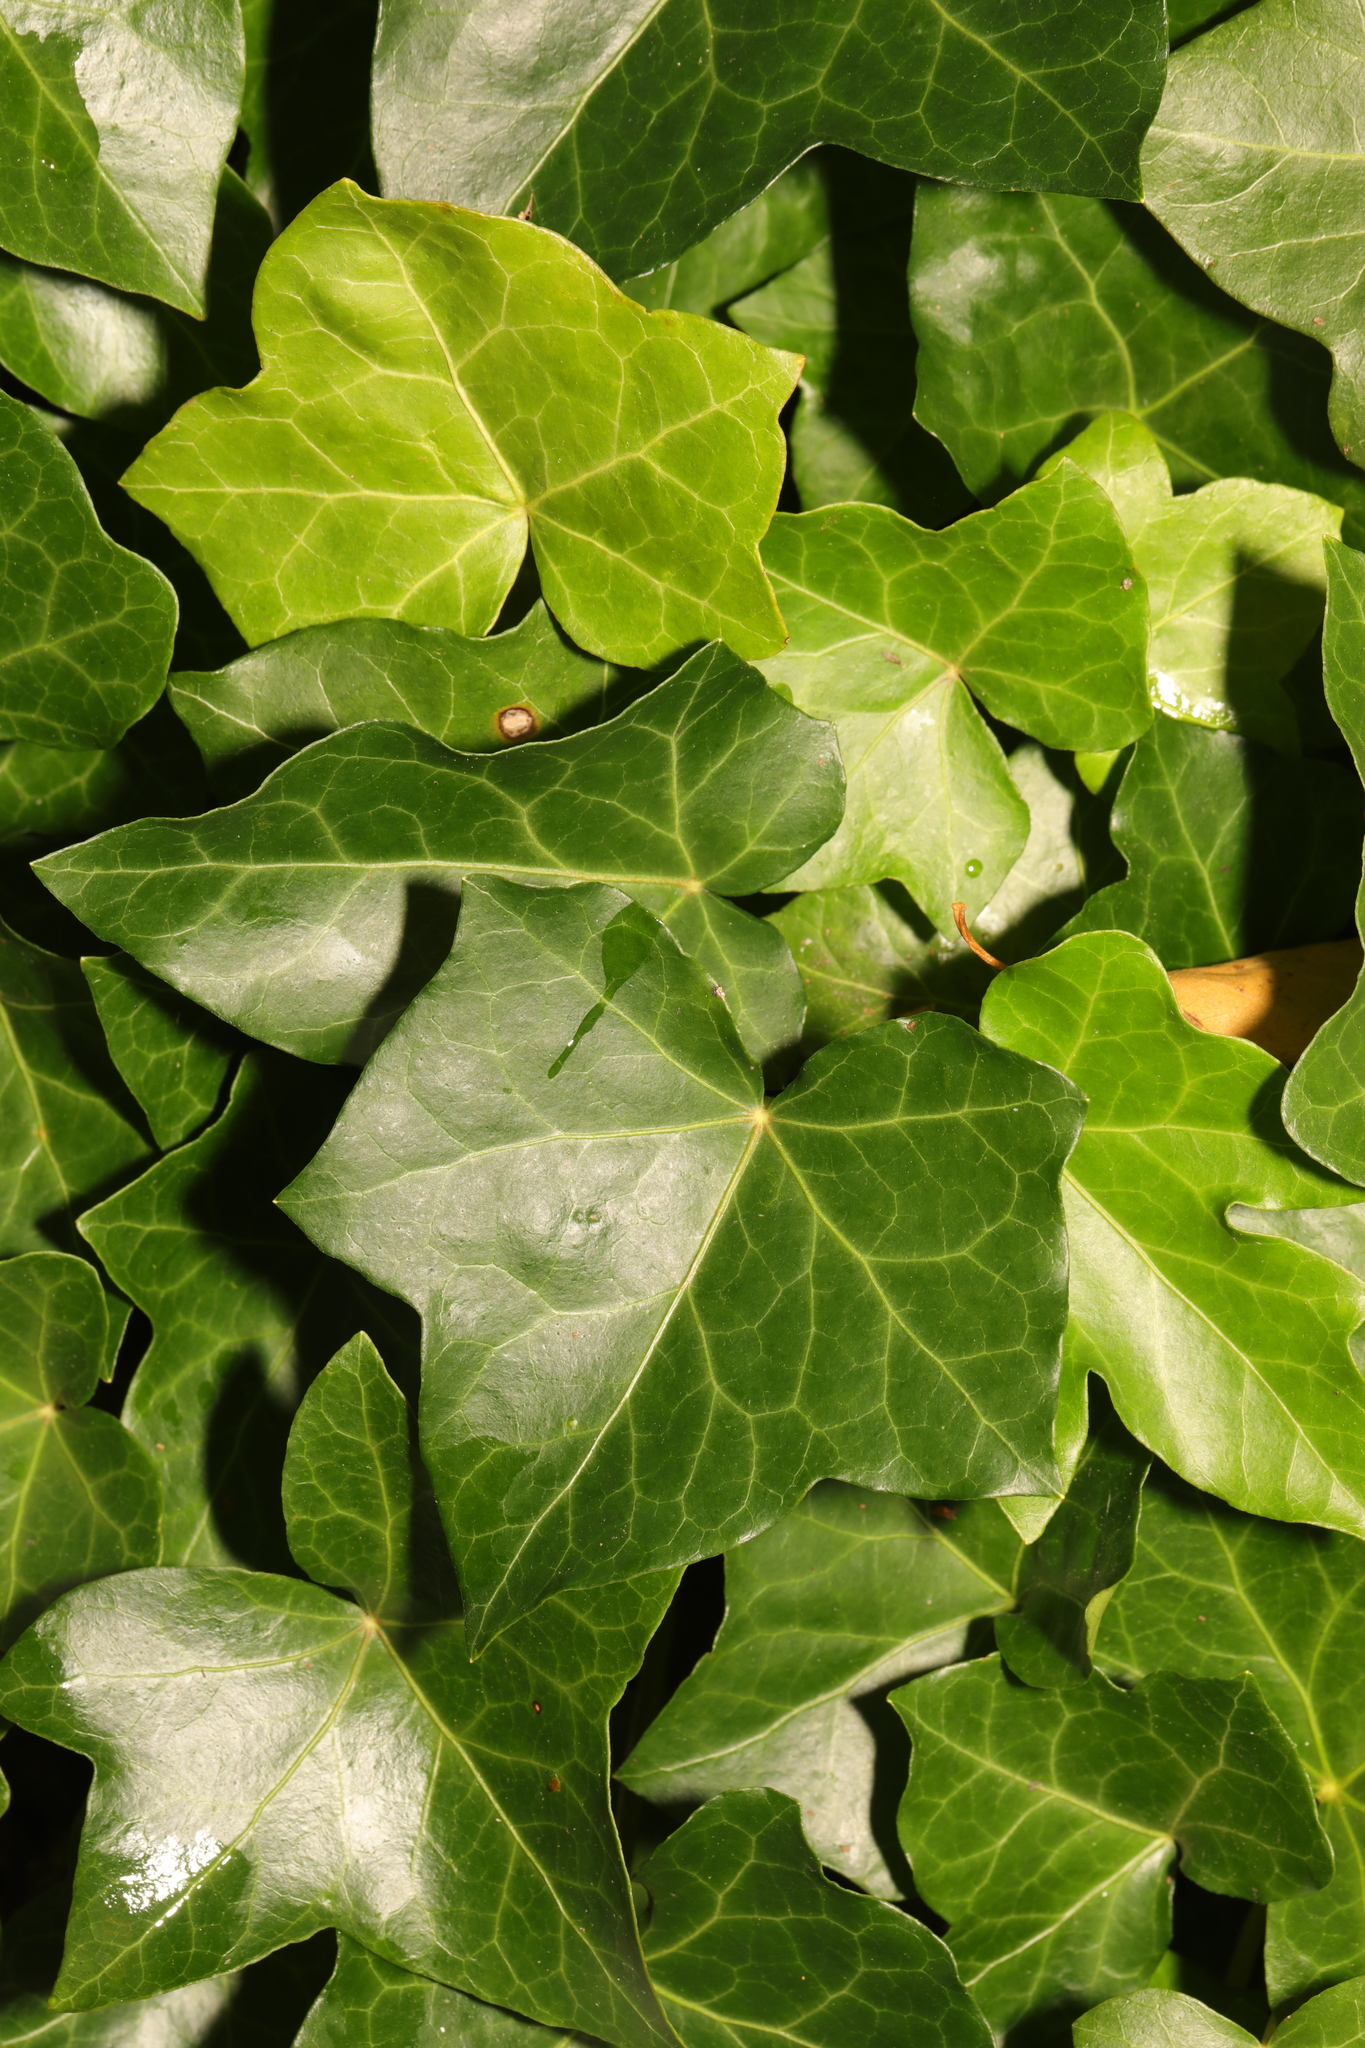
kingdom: Plantae
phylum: Tracheophyta
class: Magnoliopsida
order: Apiales
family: Araliaceae
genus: Hedera
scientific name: Hedera helix
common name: Ivy
